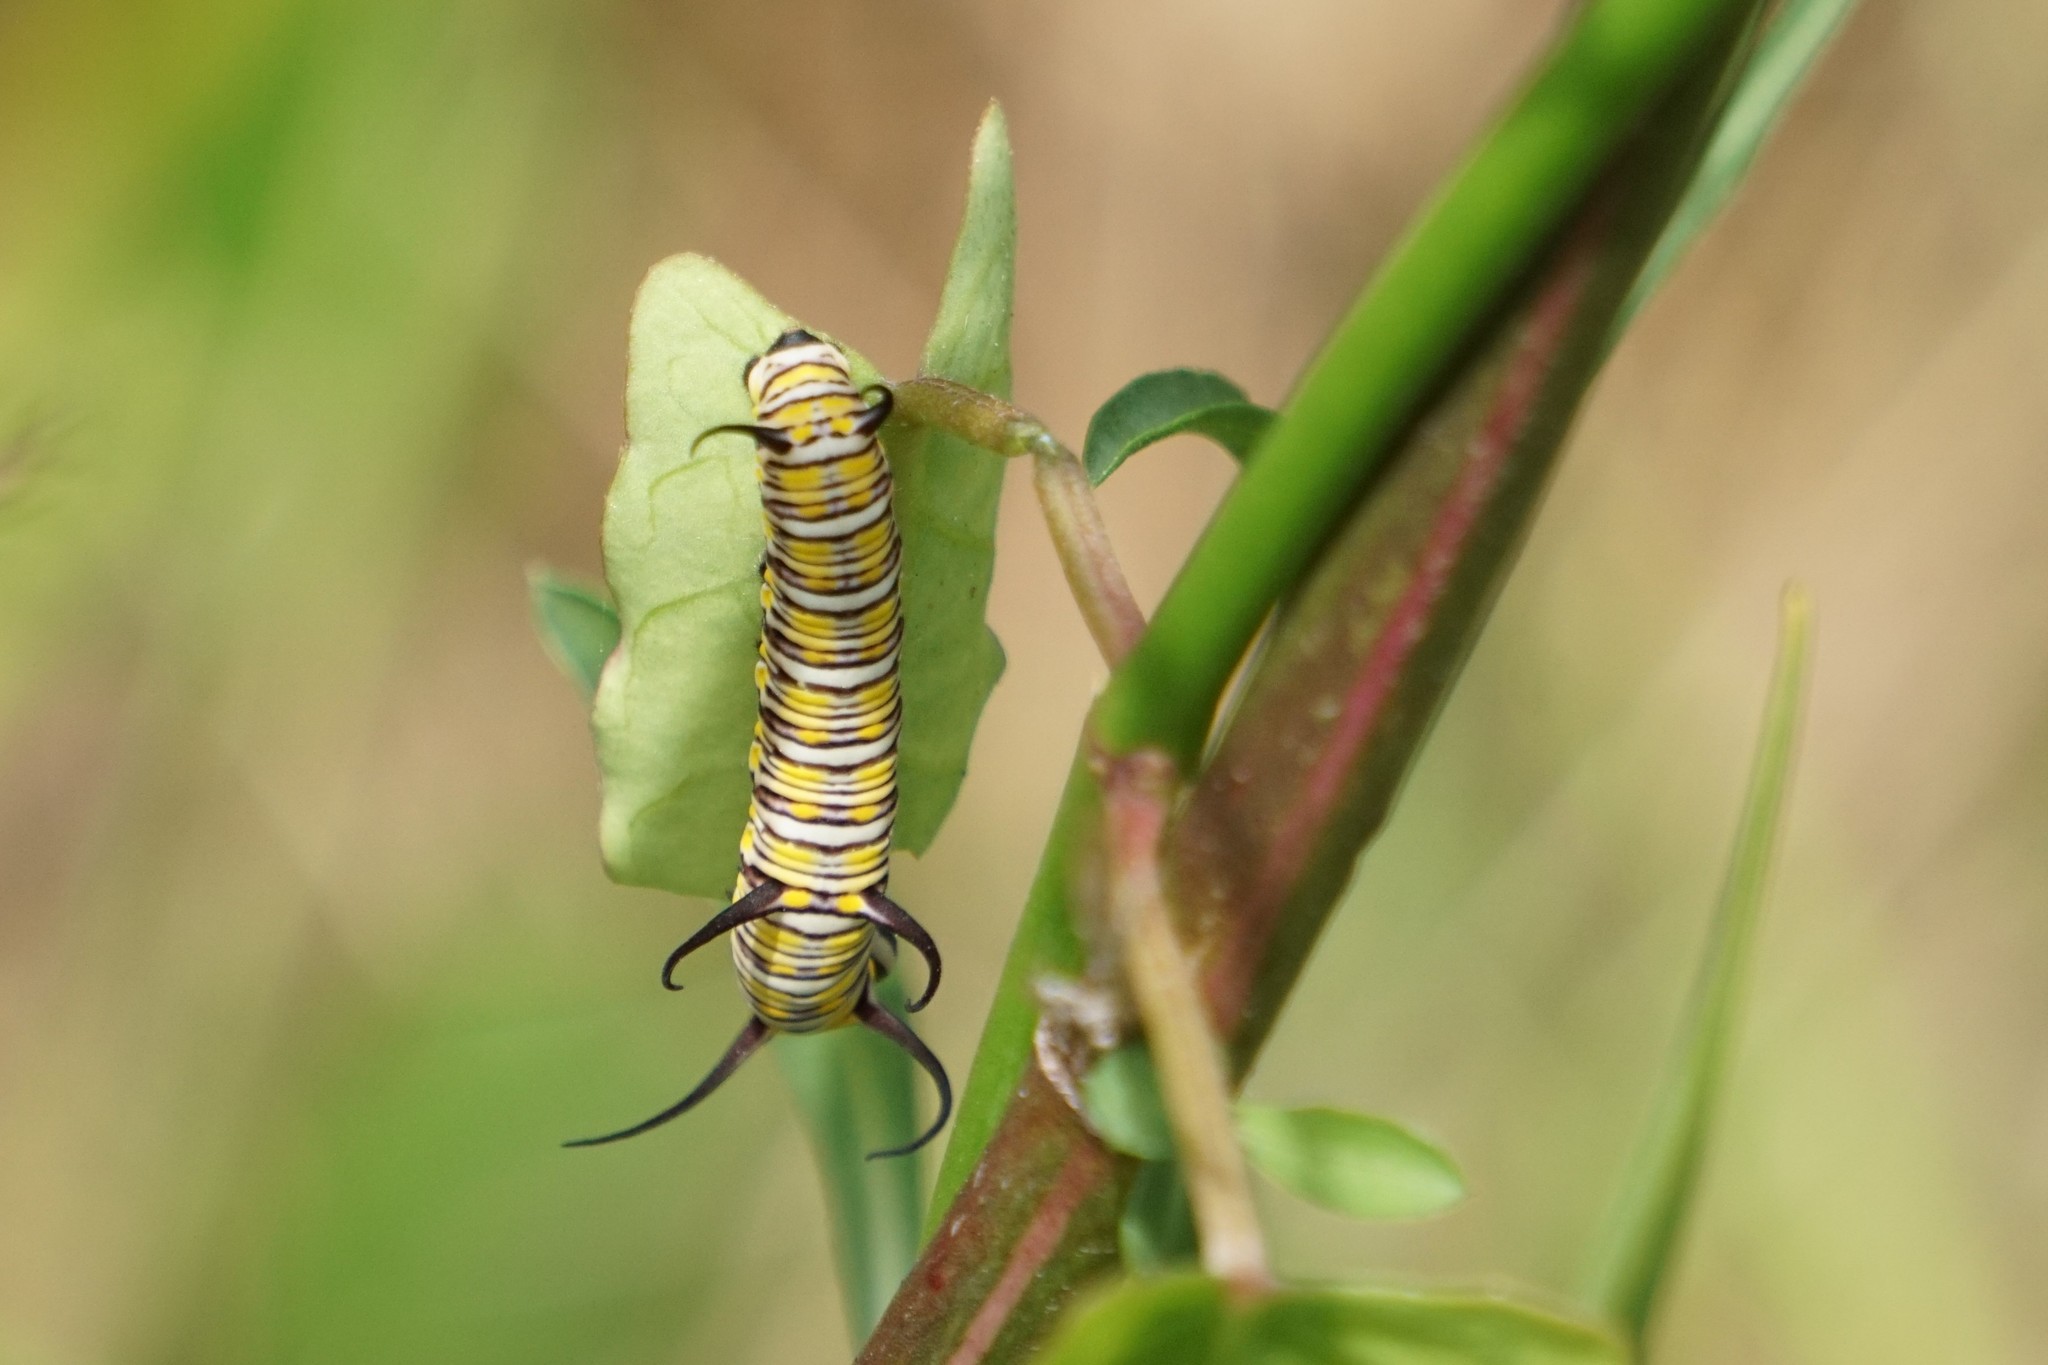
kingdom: Animalia
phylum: Arthropoda
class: Insecta
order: Lepidoptera
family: Nymphalidae
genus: Danaus
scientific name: Danaus gilippus
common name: Queen
